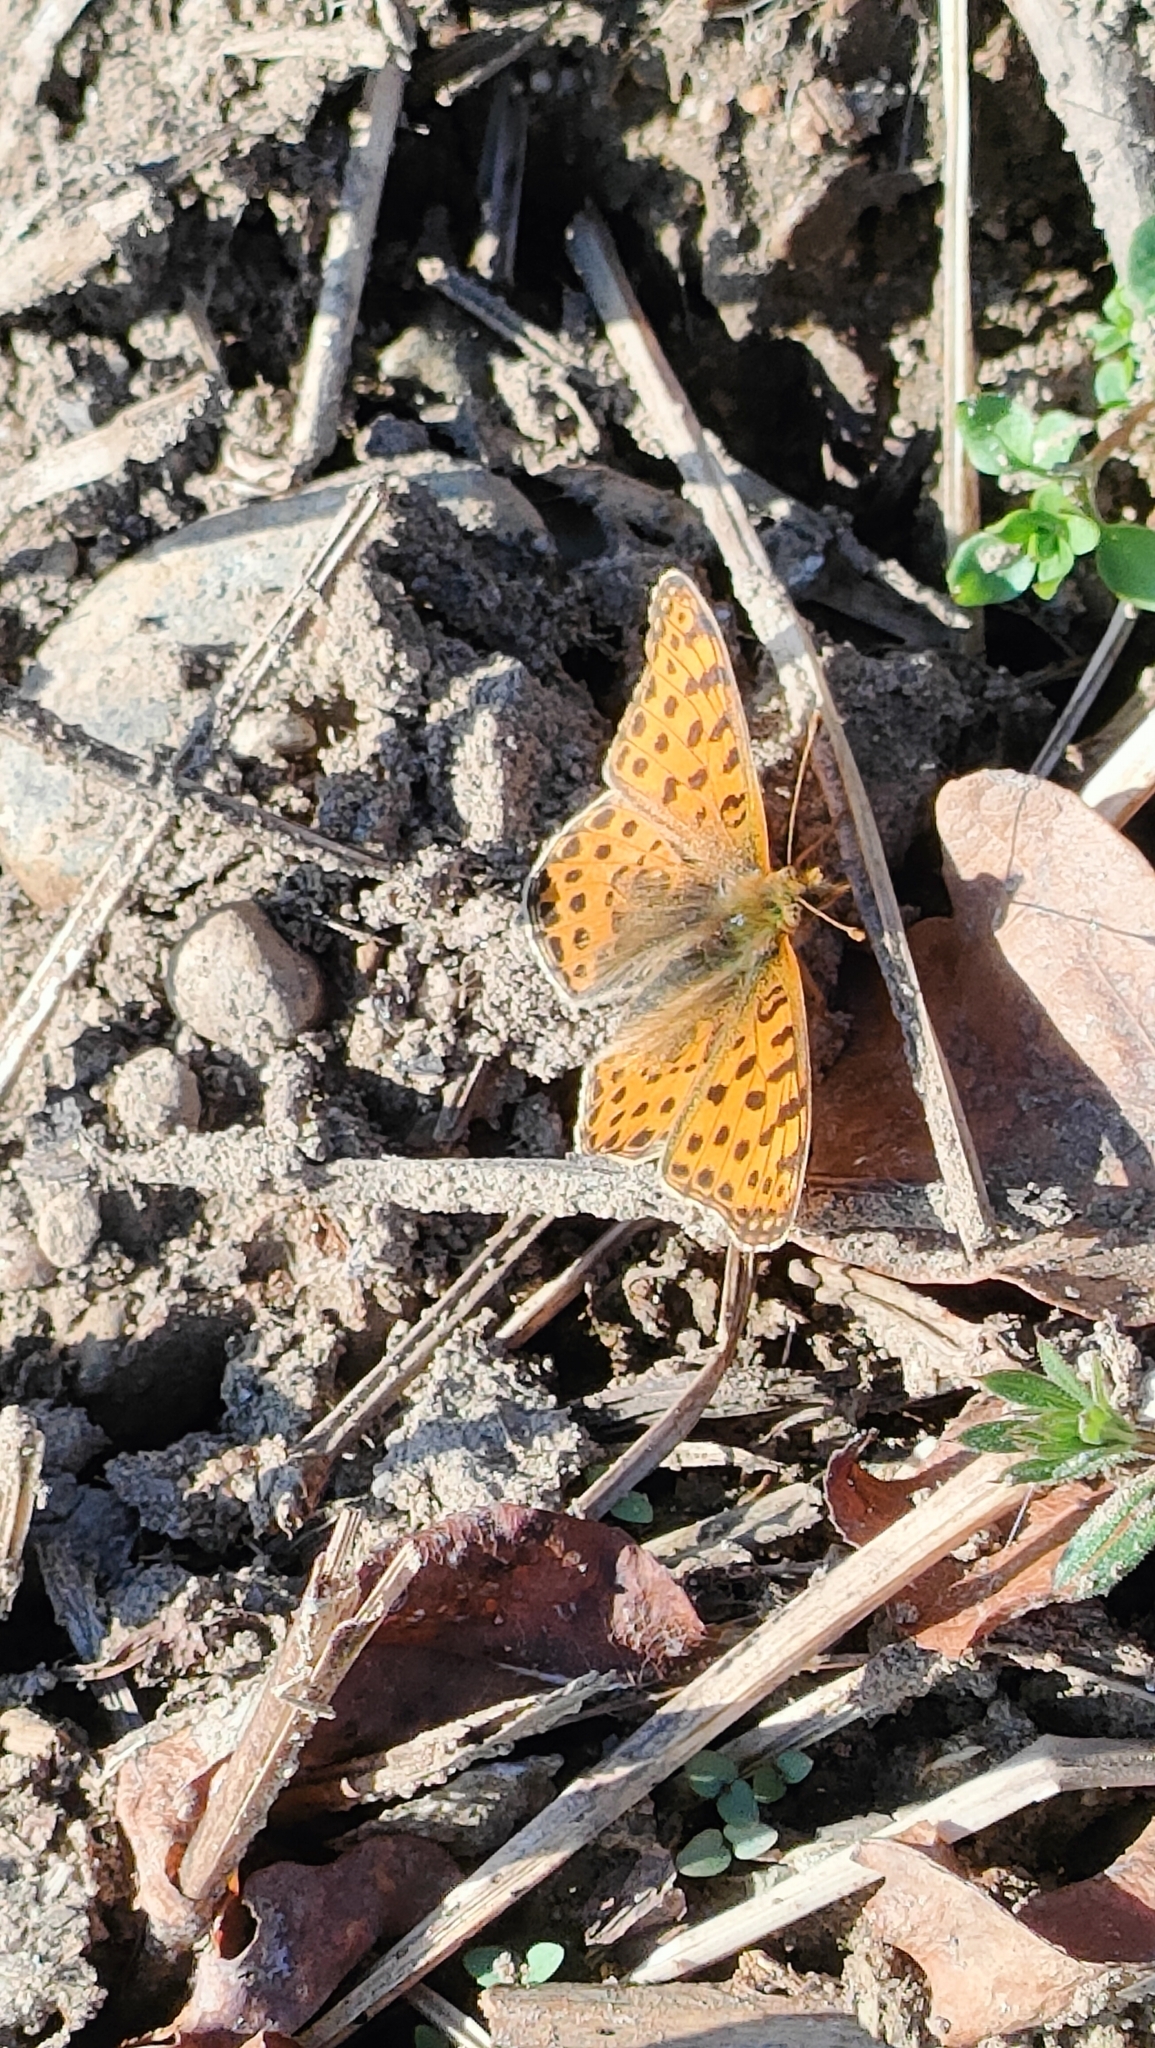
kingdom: Animalia
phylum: Arthropoda
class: Insecta
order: Lepidoptera
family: Nymphalidae
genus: Issoria
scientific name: Issoria lathonia
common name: Queen of spain fritillary
